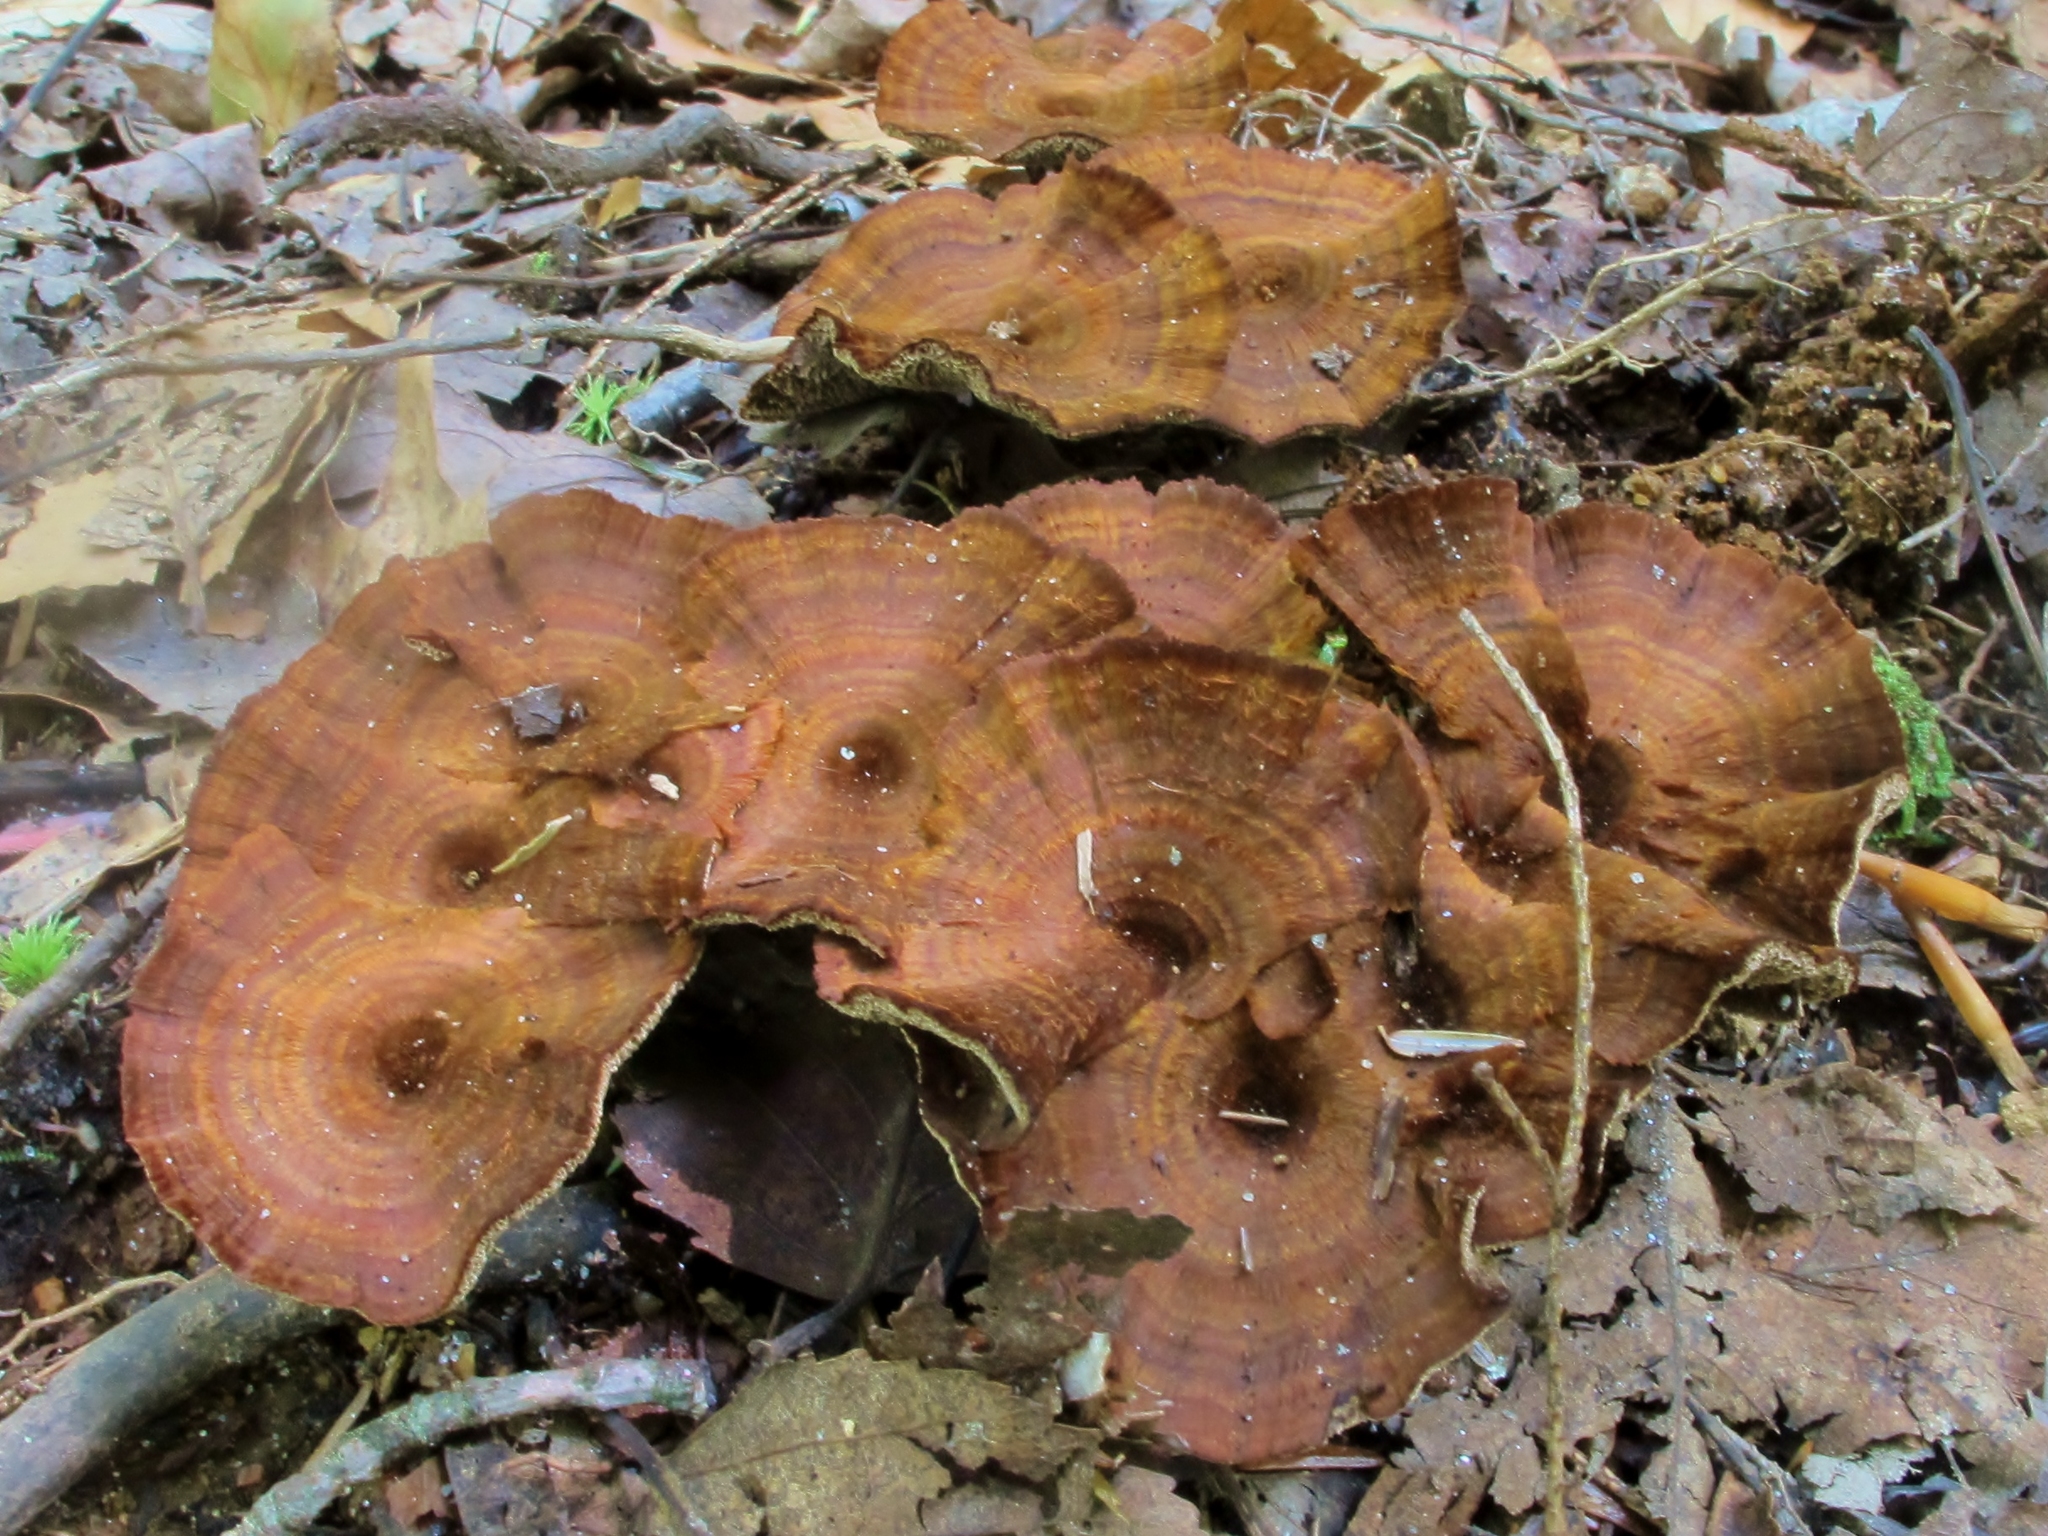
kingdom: Fungi
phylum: Basidiomycota
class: Agaricomycetes
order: Hymenochaetales
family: Hymenochaetaceae
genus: Coltricia
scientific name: Coltricia cinnamomea
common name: Shiny cinnamon polypore
